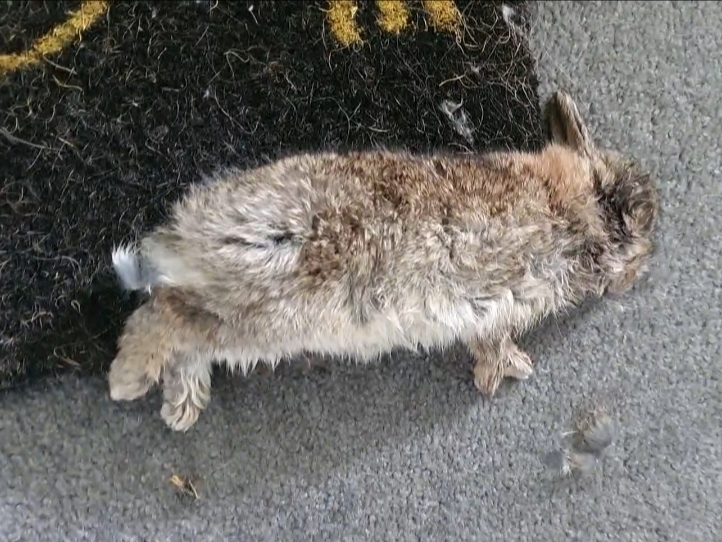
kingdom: Animalia
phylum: Chordata
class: Mammalia
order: Lagomorpha
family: Leporidae
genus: Oryctolagus
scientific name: Oryctolagus cuniculus
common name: European rabbit
